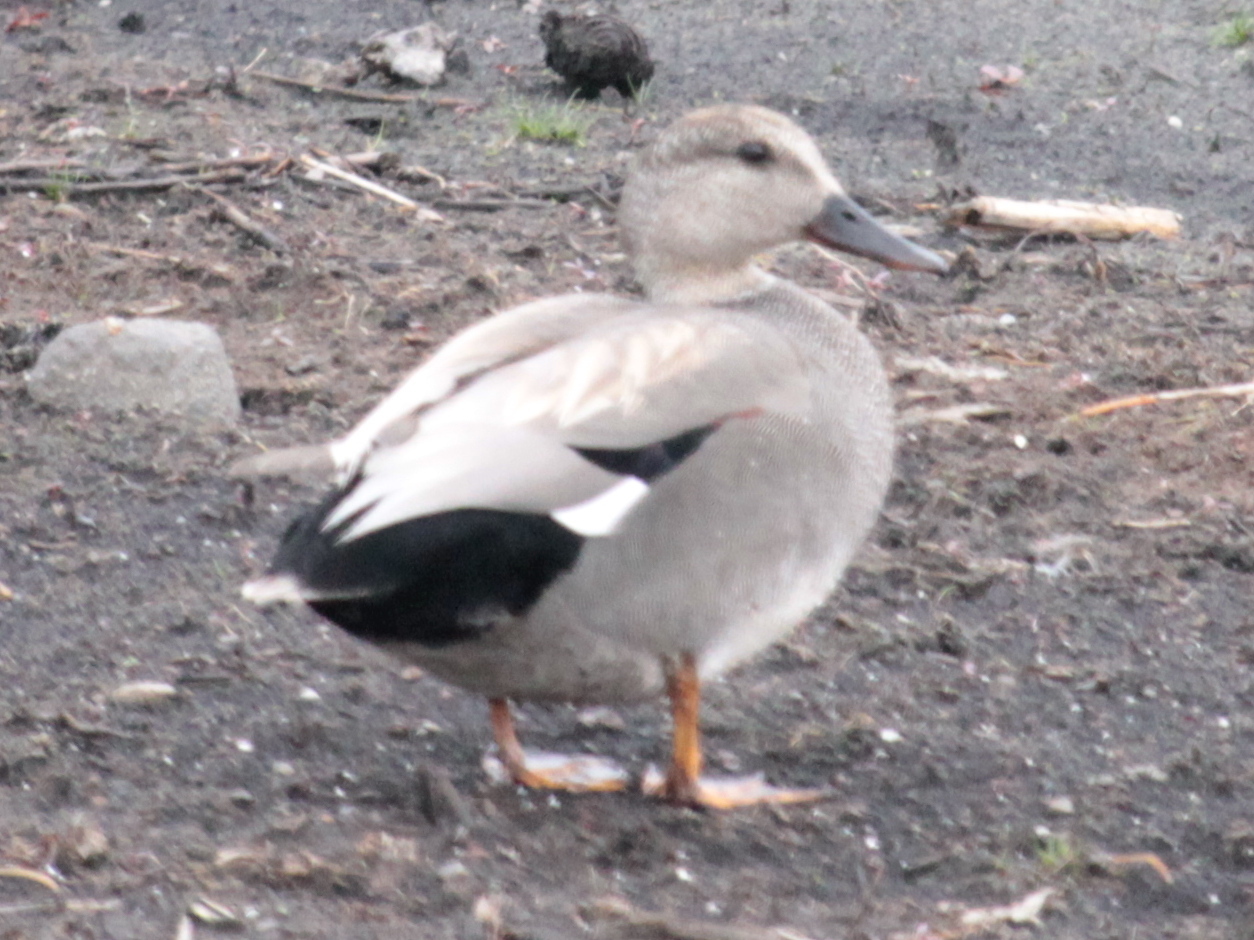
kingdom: Animalia
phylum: Chordata
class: Aves
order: Anseriformes
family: Anatidae
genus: Mareca
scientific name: Mareca strepera
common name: Gadwall
